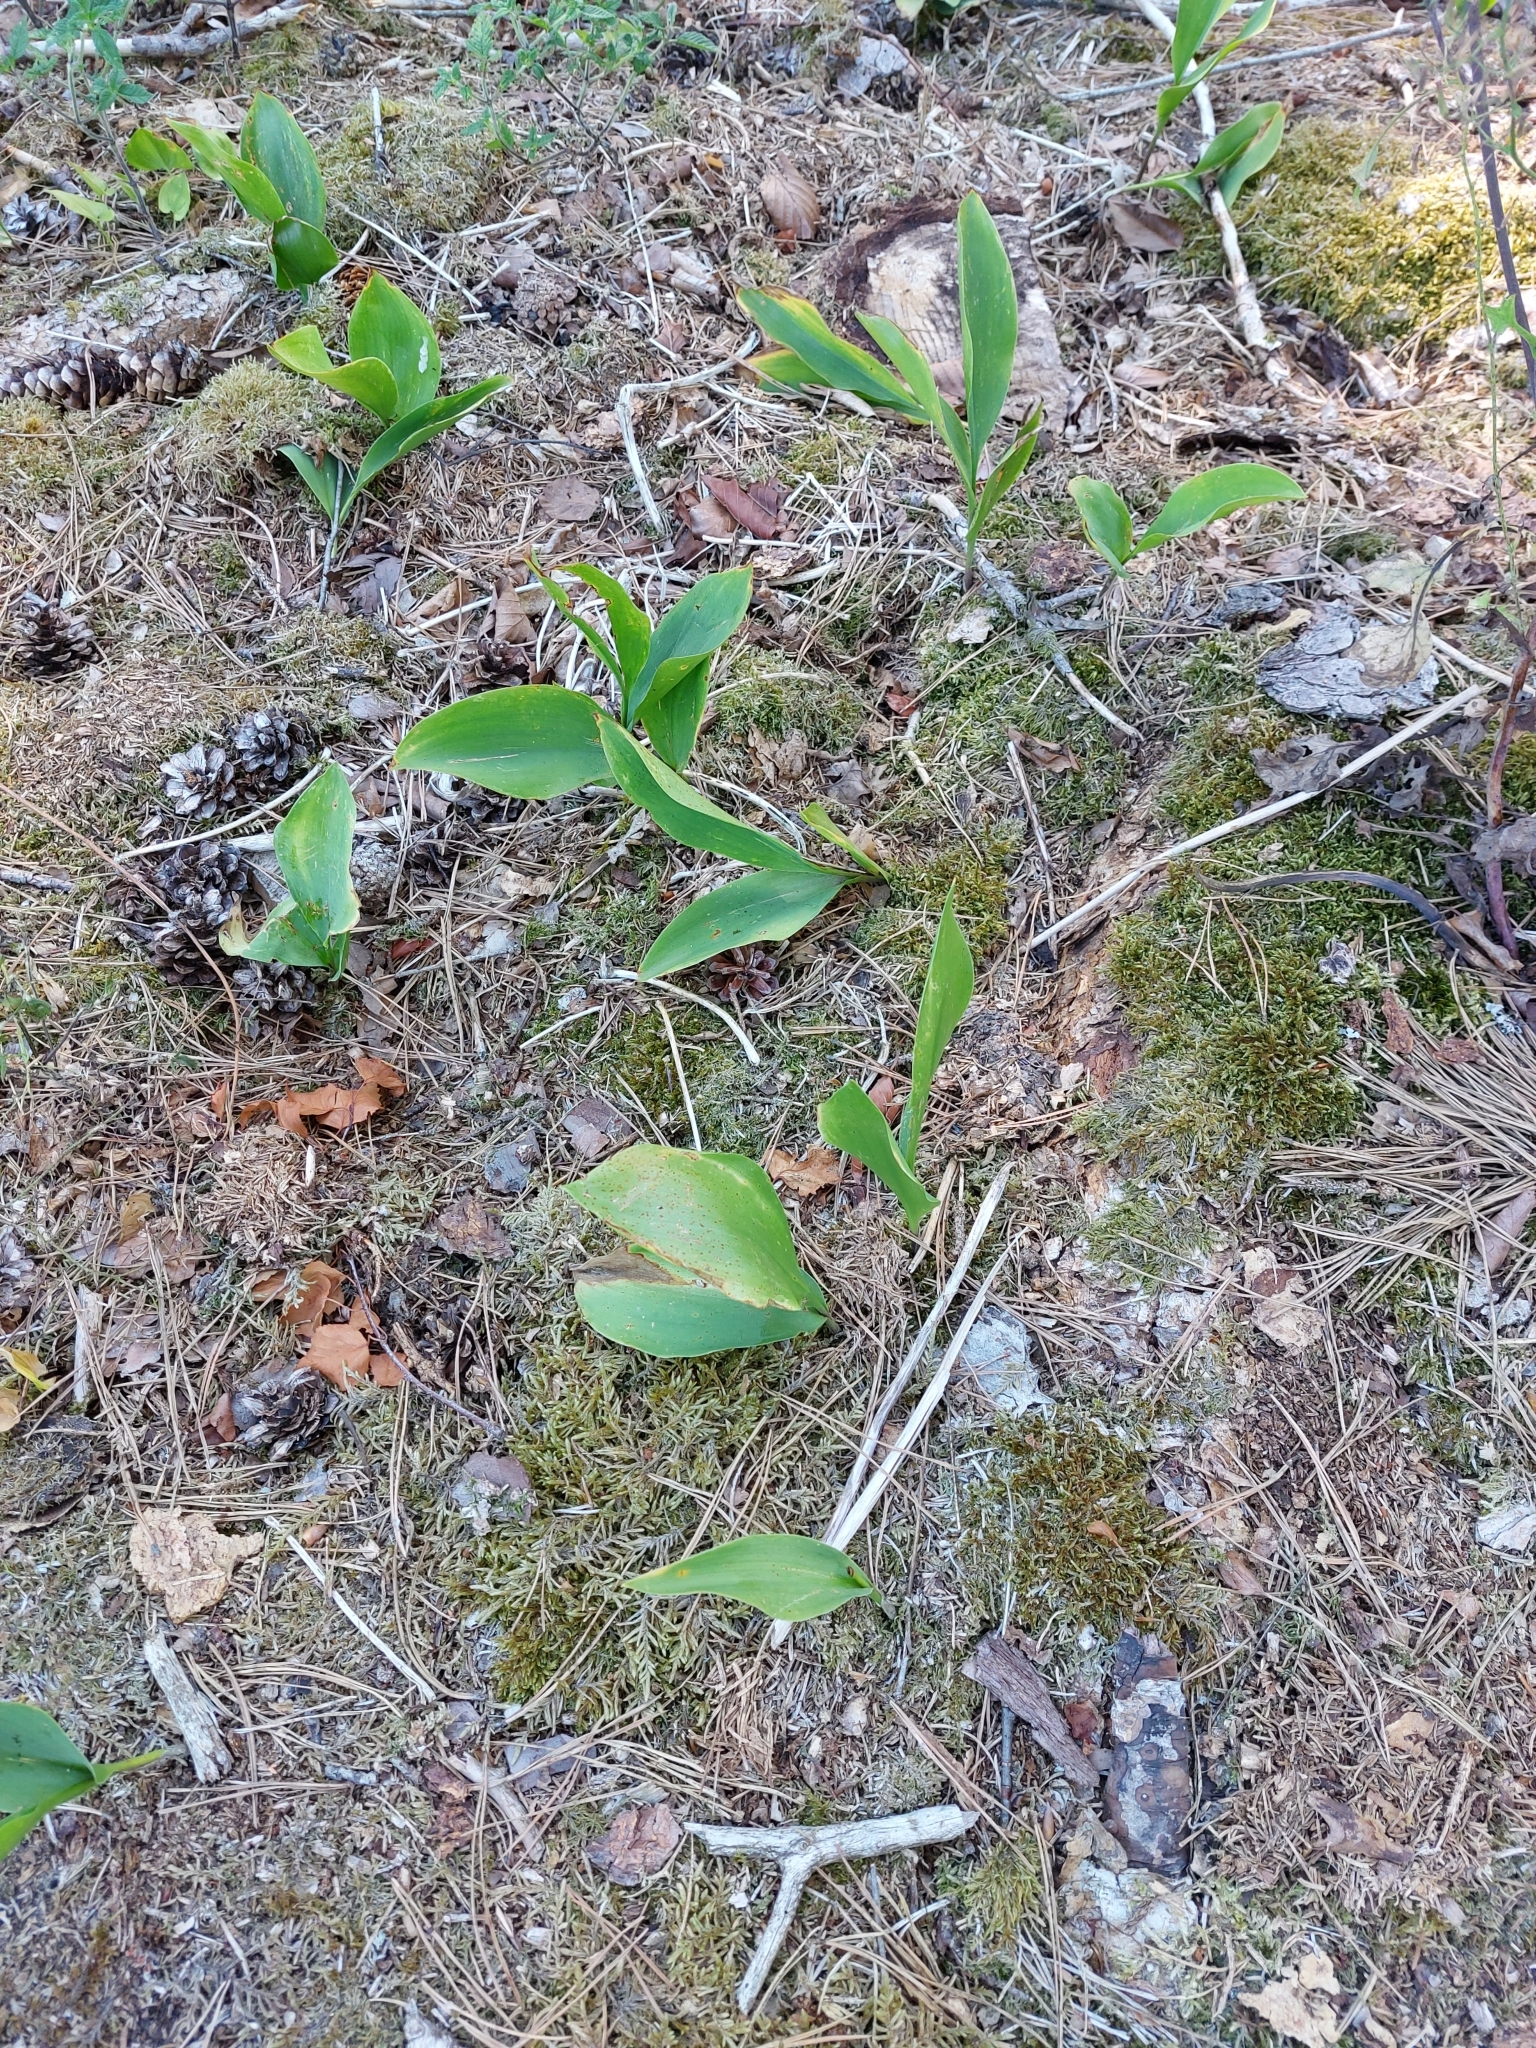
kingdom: Plantae
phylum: Tracheophyta
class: Liliopsida
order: Asparagales
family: Asparagaceae
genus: Convallaria
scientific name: Convallaria majalis
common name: Lily-of-the-valley
